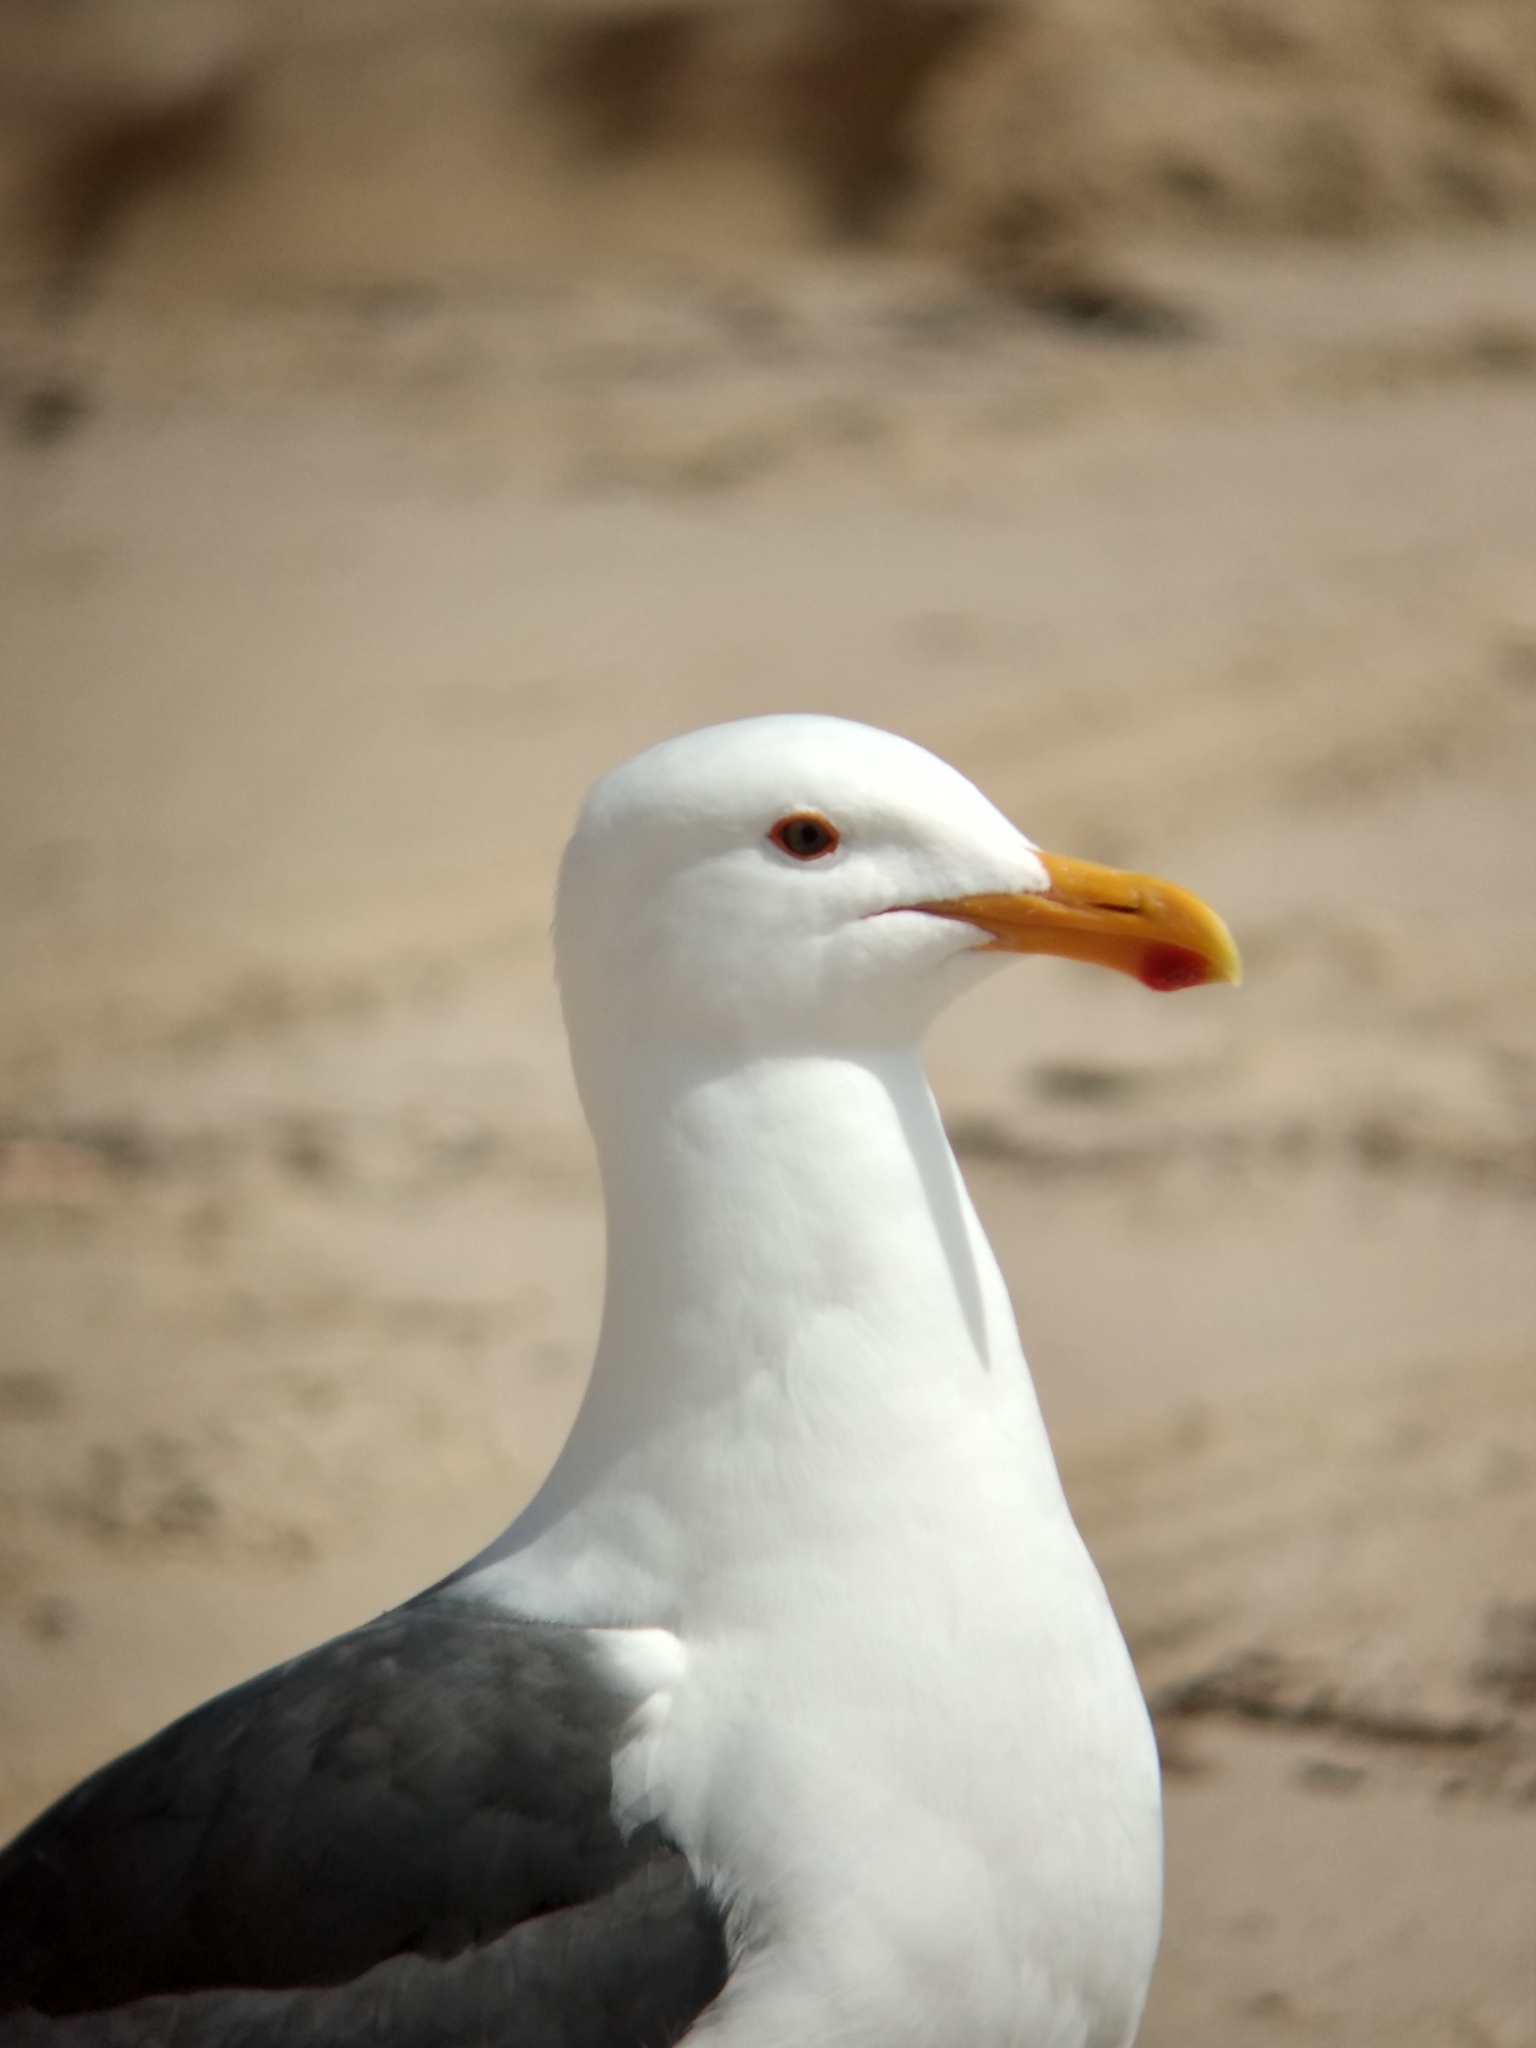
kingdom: Animalia
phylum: Chordata
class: Aves
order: Charadriiformes
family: Laridae
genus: Larus
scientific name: Larus occidentalis
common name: Western gull
